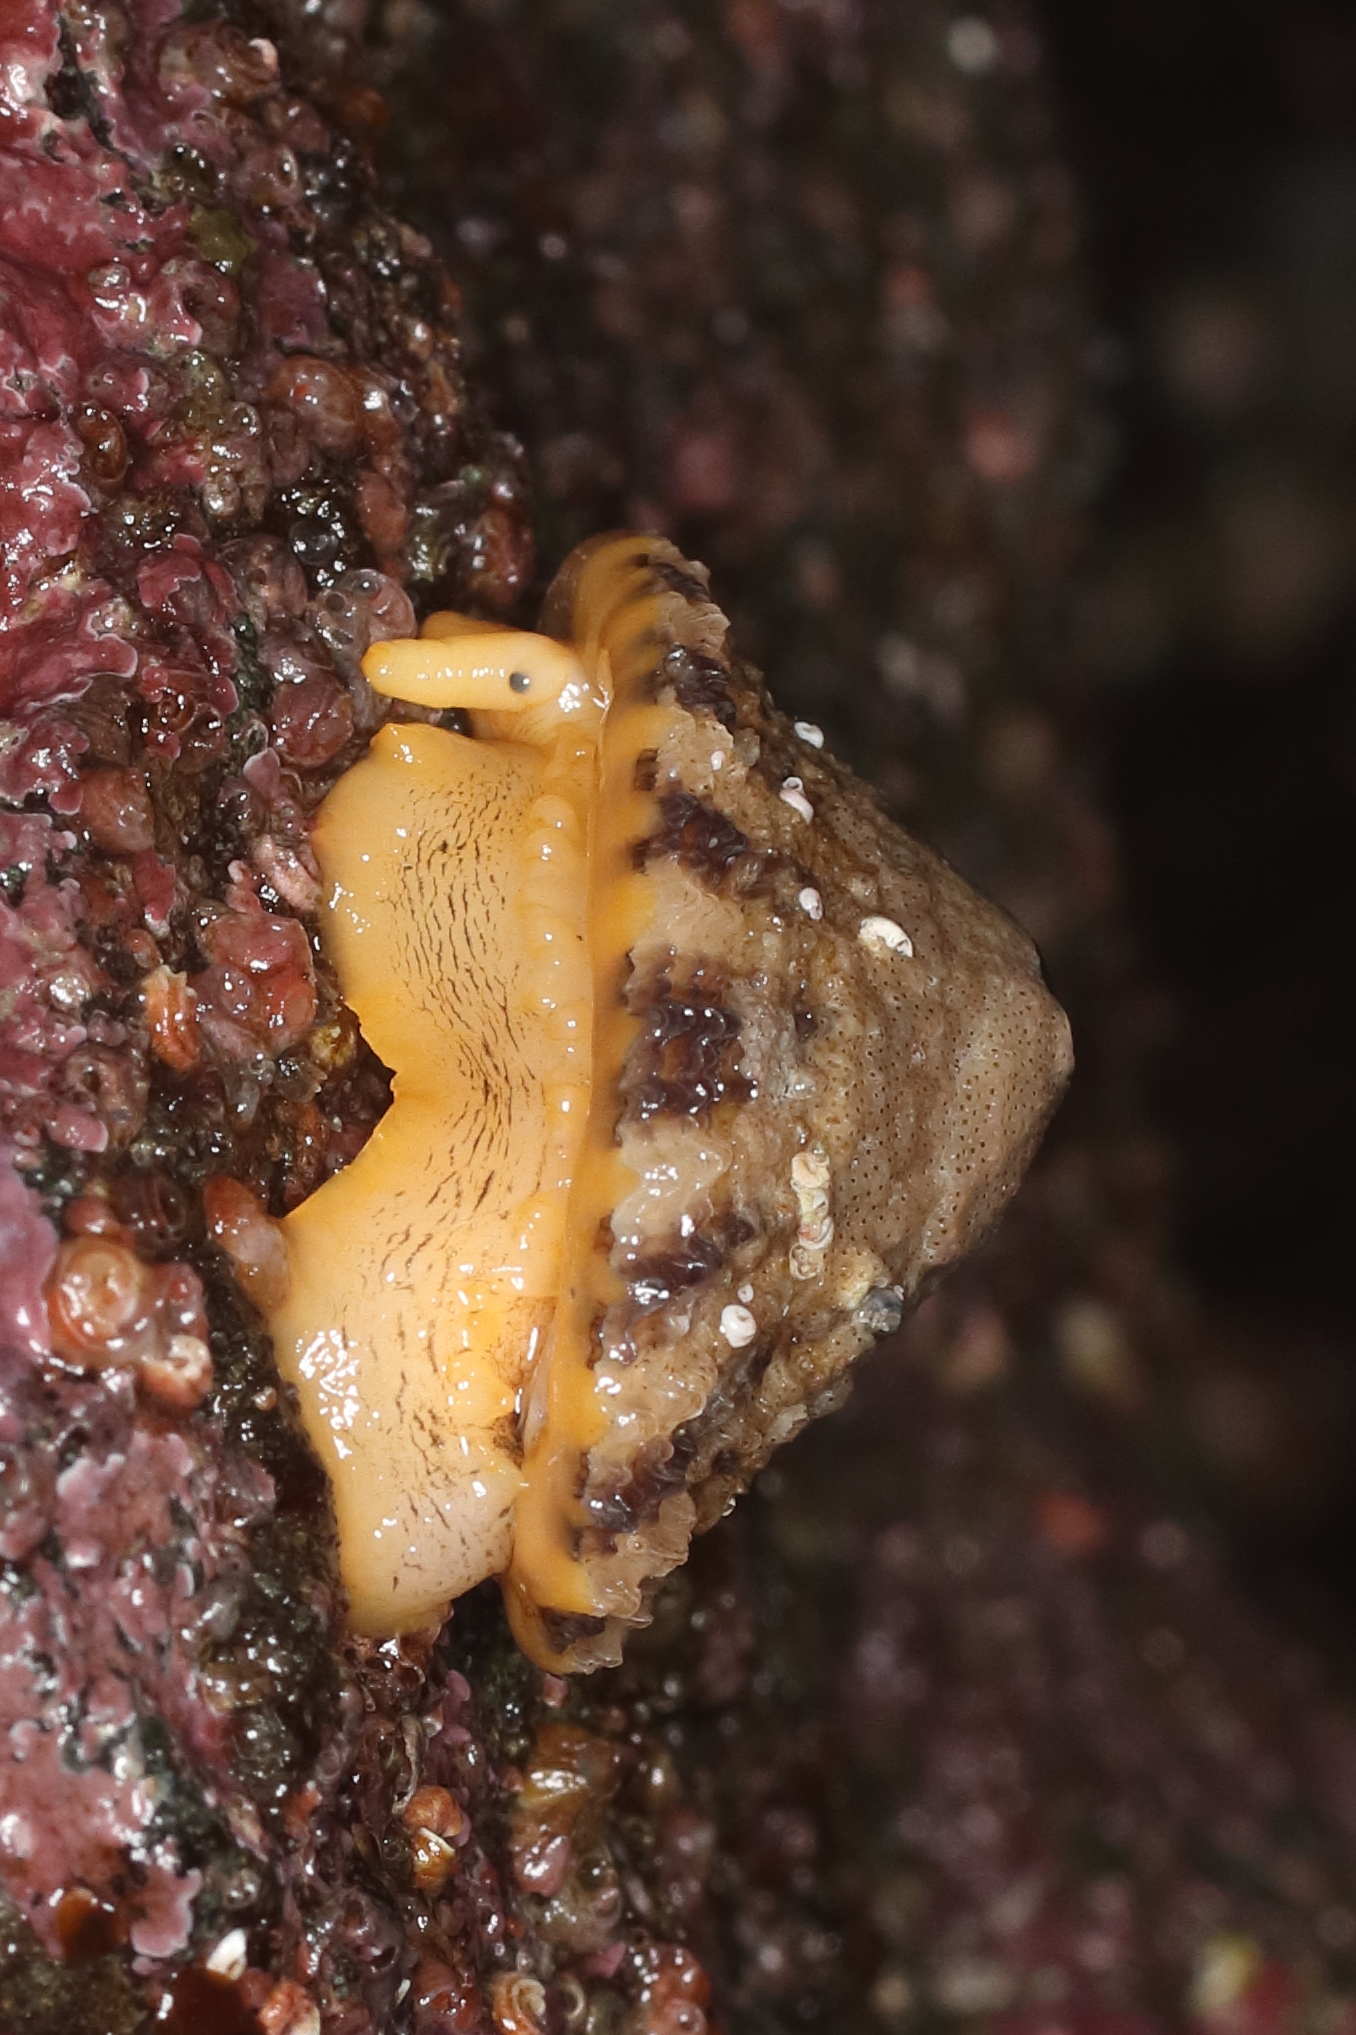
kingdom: Animalia
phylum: Mollusca
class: Gastropoda
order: Lepetellida
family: Fissurellidae
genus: Diodora
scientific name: Diodora aspera
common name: Rough keyhole limpet
